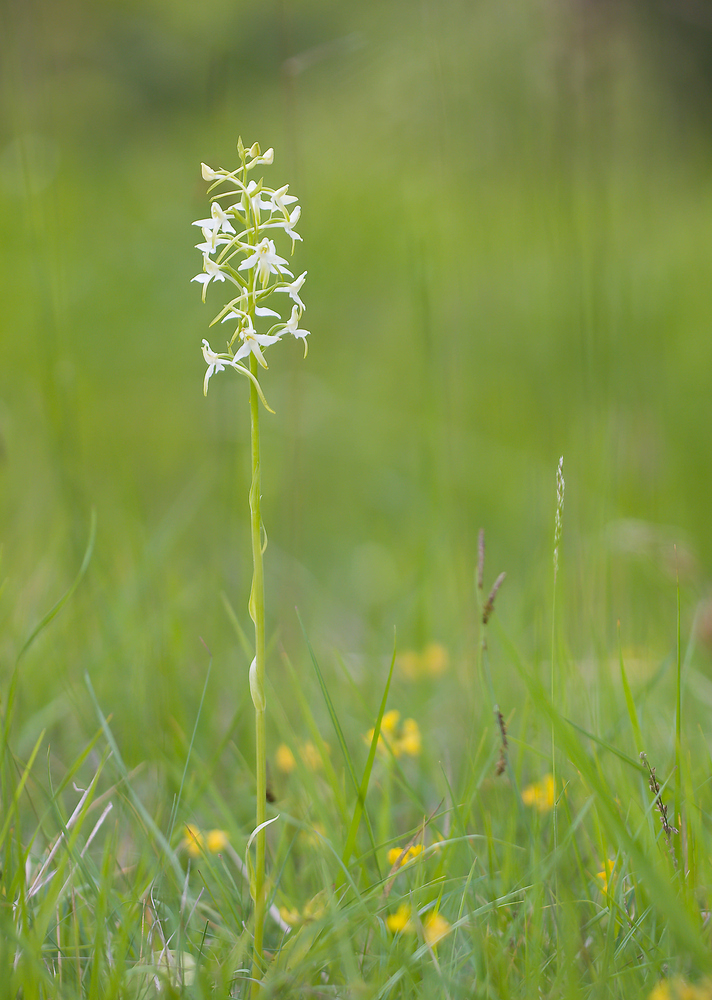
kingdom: Plantae
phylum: Tracheophyta
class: Liliopsida
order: Asparagales
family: Orchidaceae
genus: Platanthera
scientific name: Platanthera bifolia
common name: Lesser butterfly-orchid
